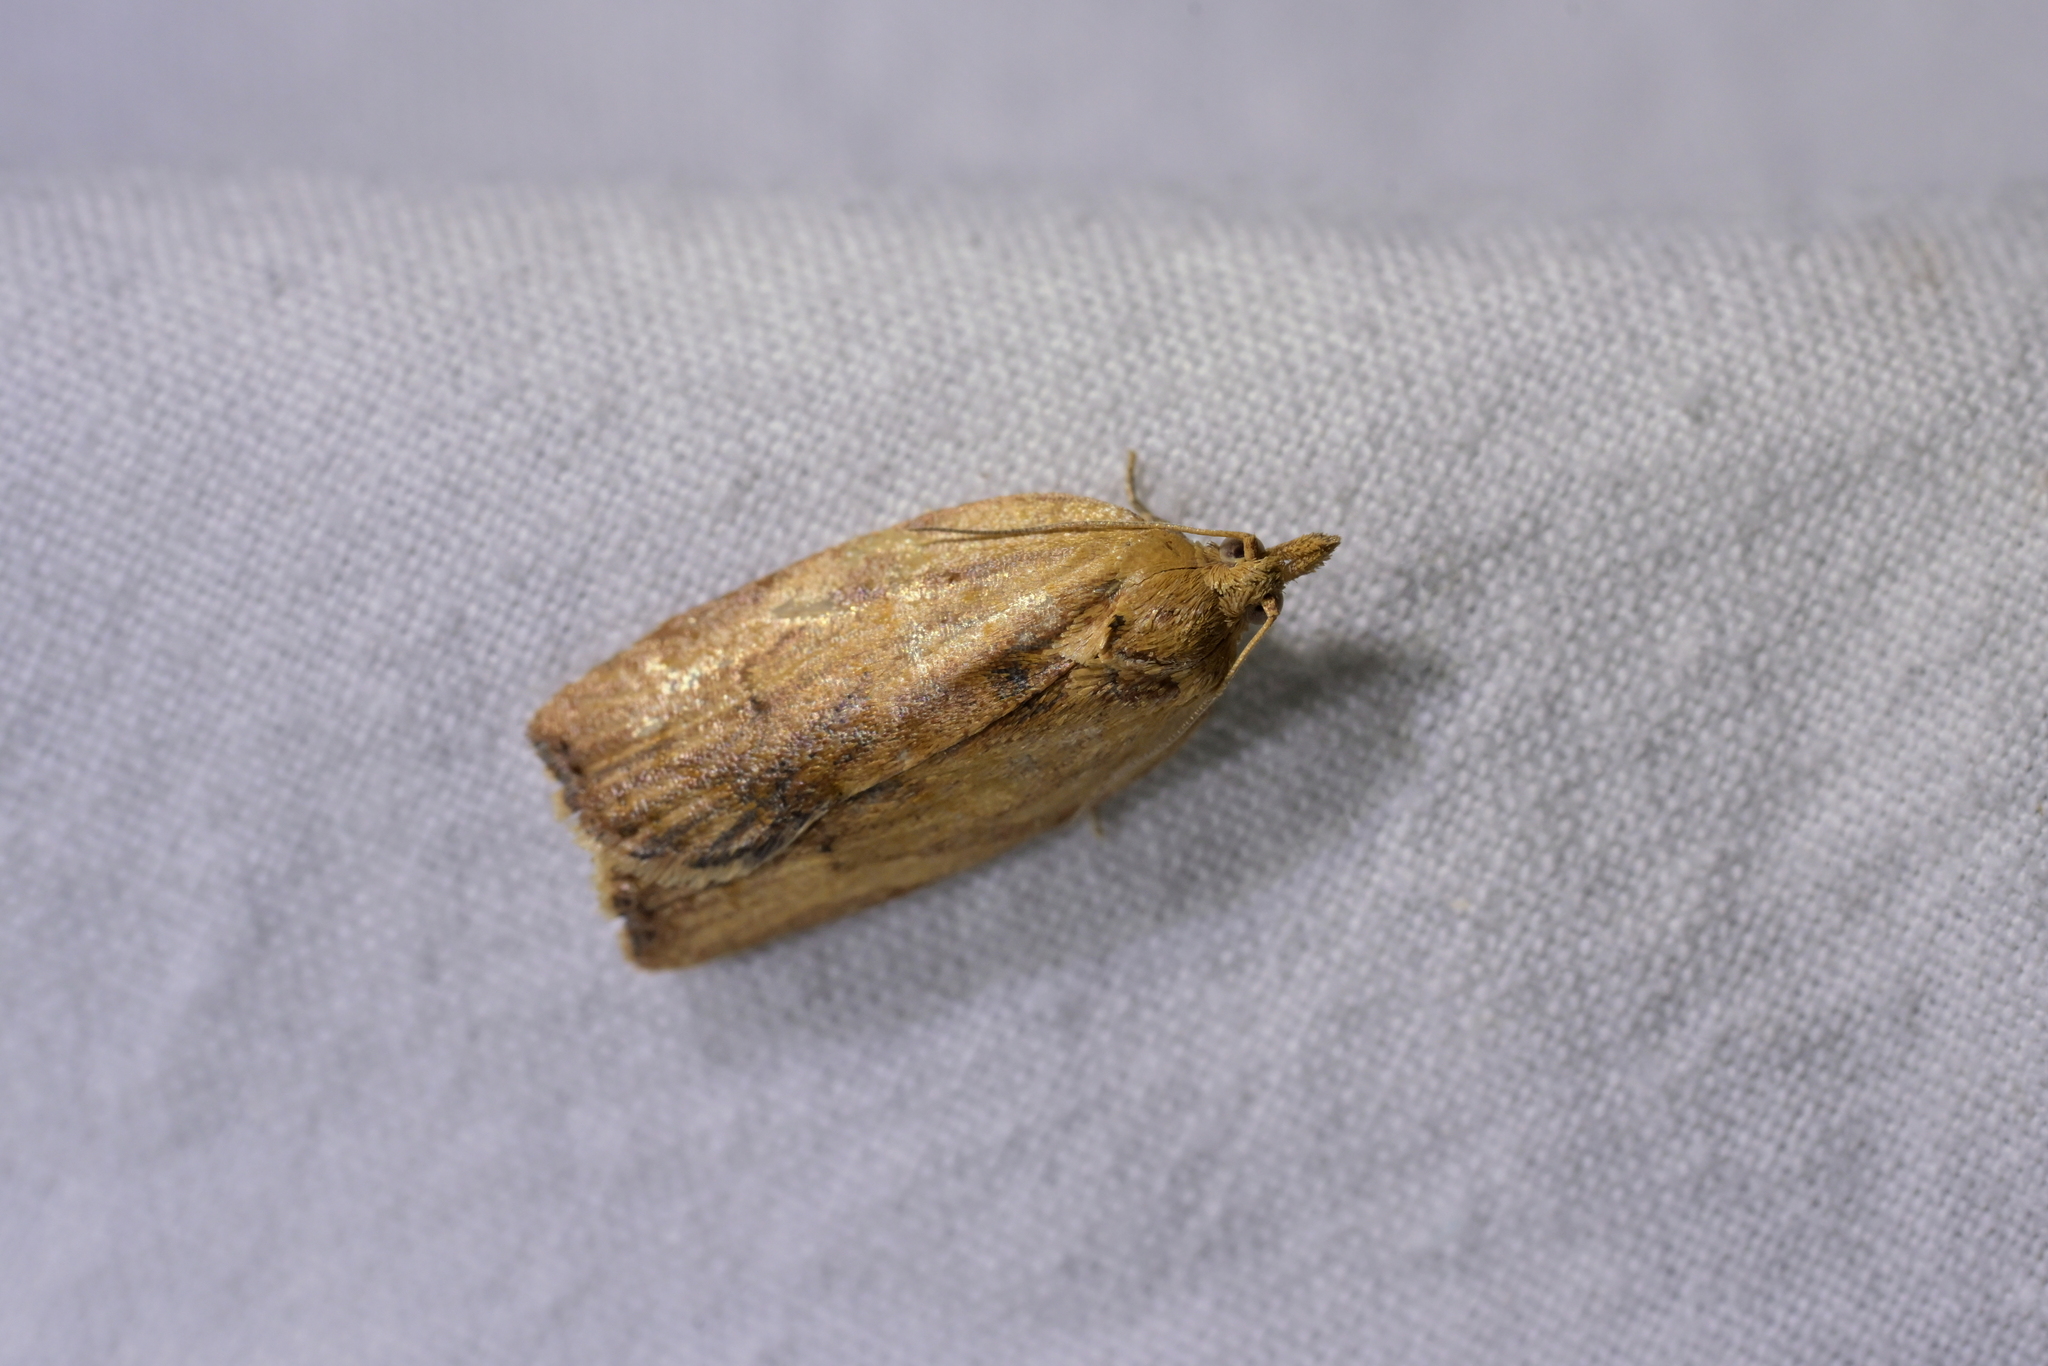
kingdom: Animalia
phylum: Arthropoda
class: Insecta
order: Lepidoptera
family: Tortricidae
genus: Epiphyas
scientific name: Epiphyas postvittana
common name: Light brown apple moth
